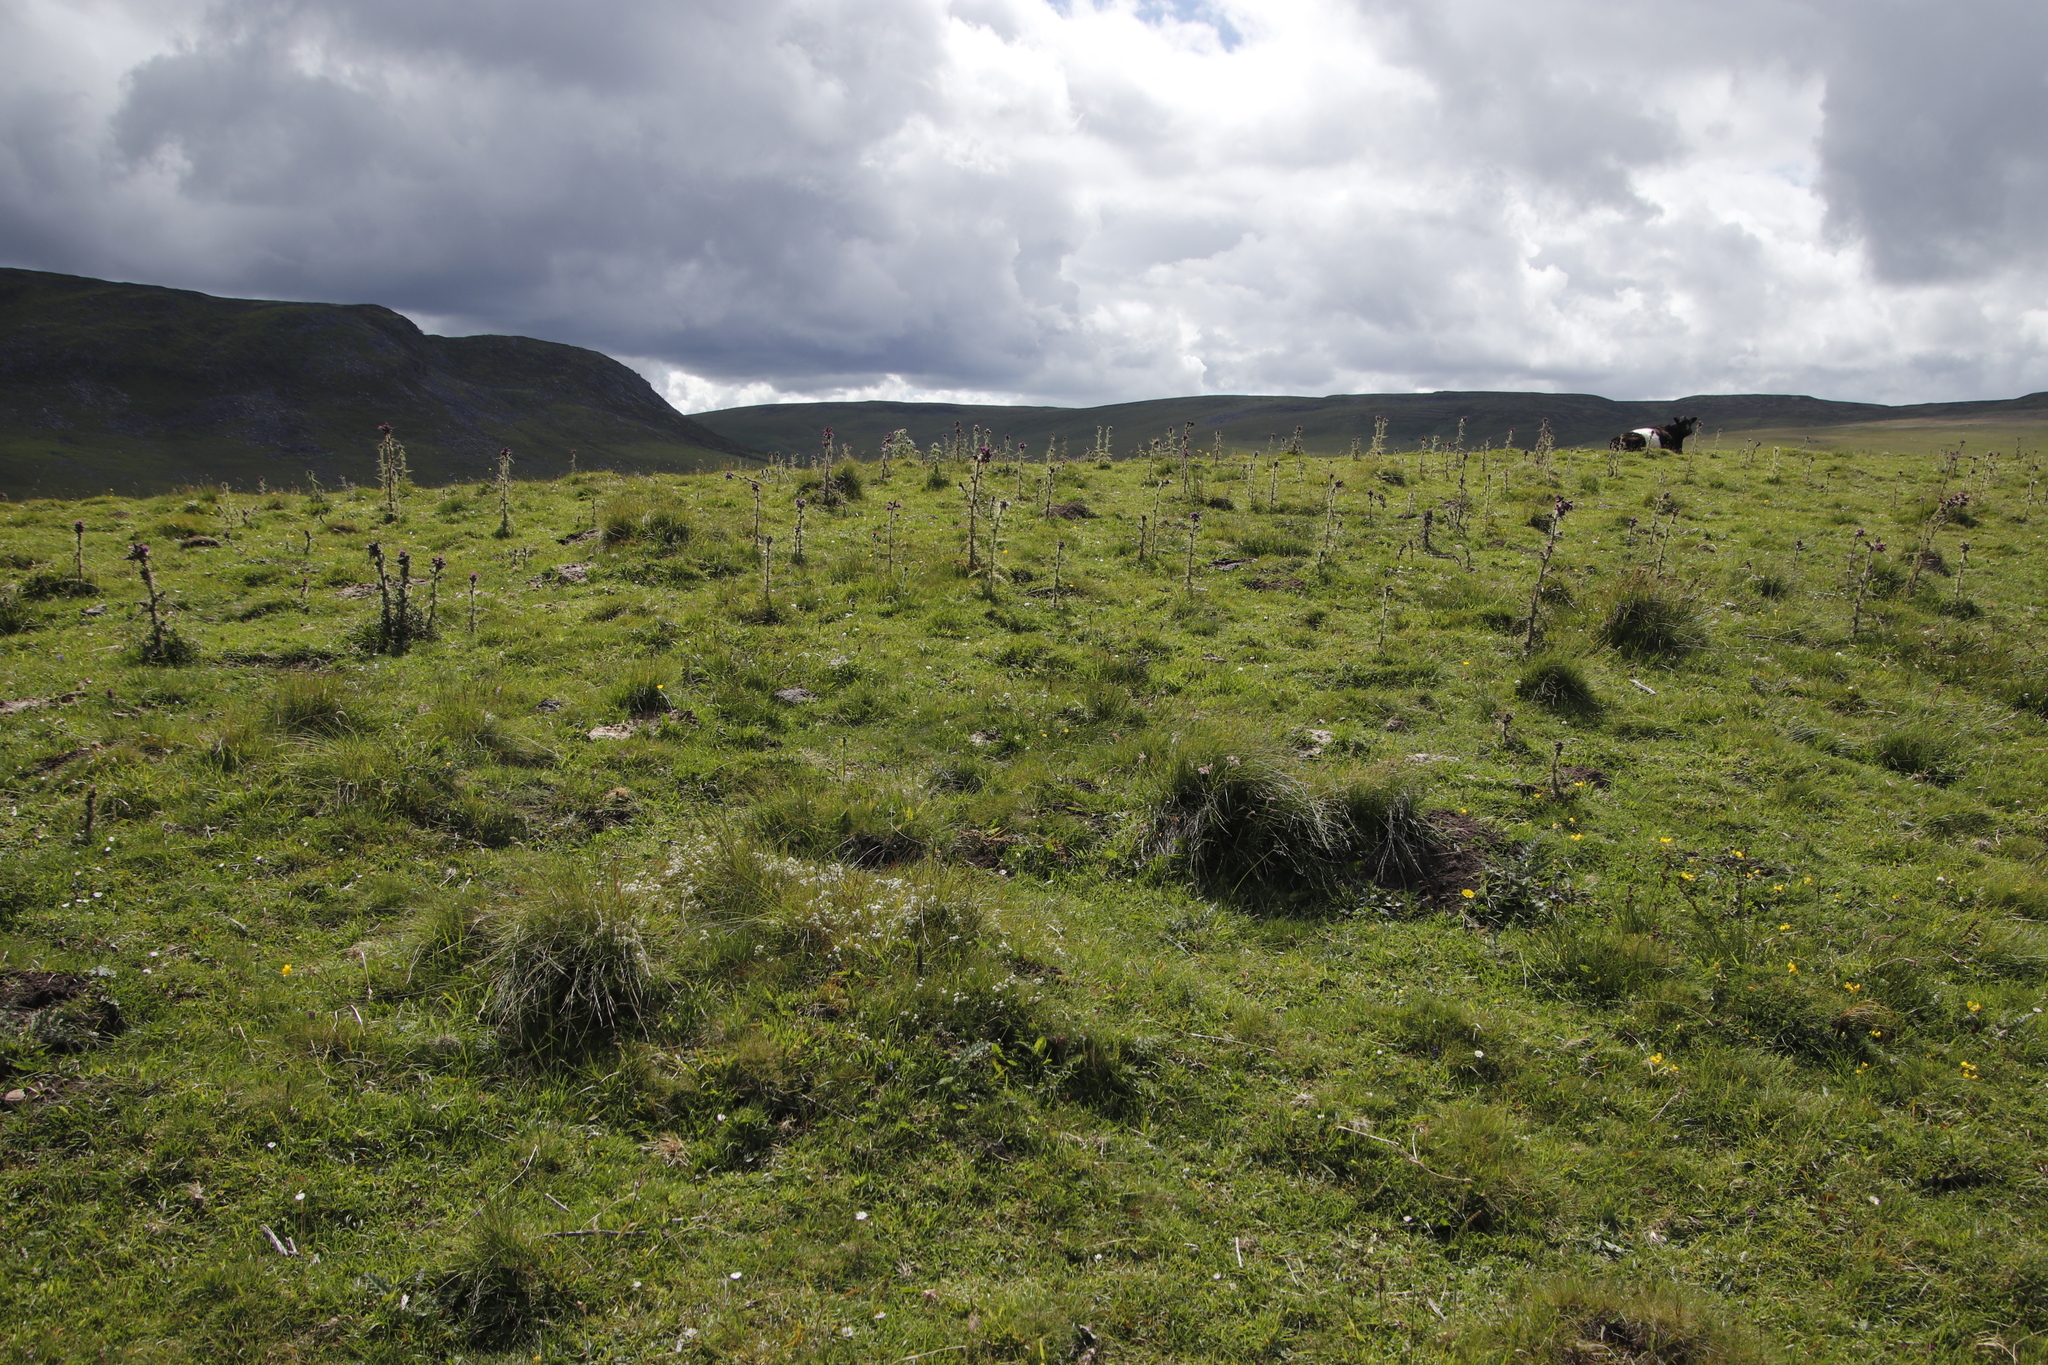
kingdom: Plantae
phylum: Tracheophyta
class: Magnoliopsida
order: Asterales
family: Asteraceae
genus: Cirsium
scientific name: Cirsium palustre
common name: Marsh thistle
